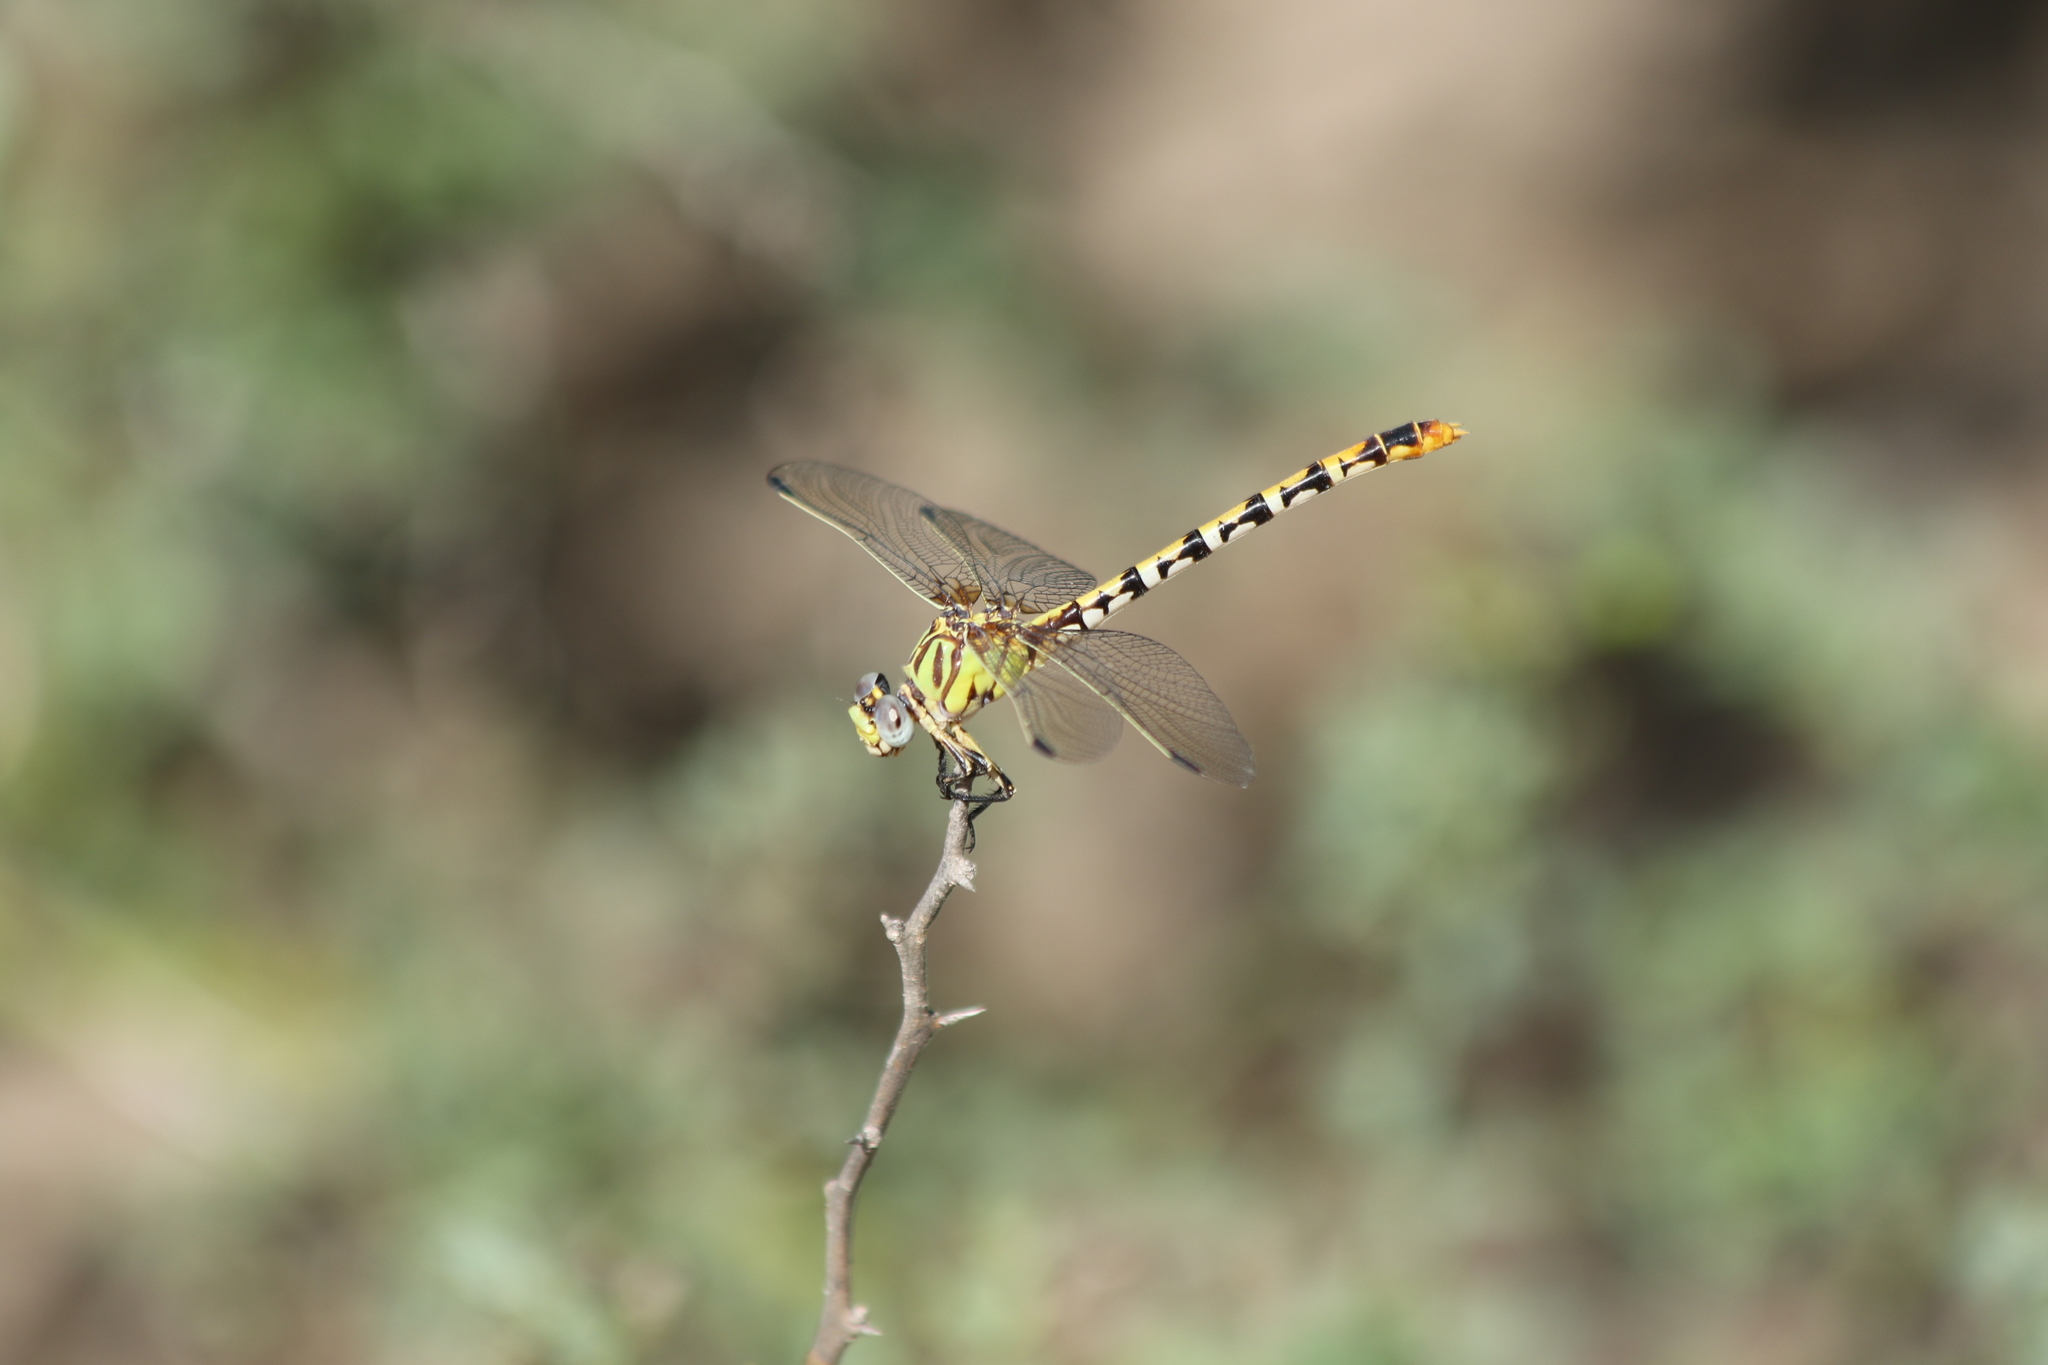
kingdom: Animalia
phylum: Arthropoda
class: Insecta
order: Odonata
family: Gomphidae
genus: Erpetogomphus
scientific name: Erpetogomphus designatus
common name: Eastern ringtail
